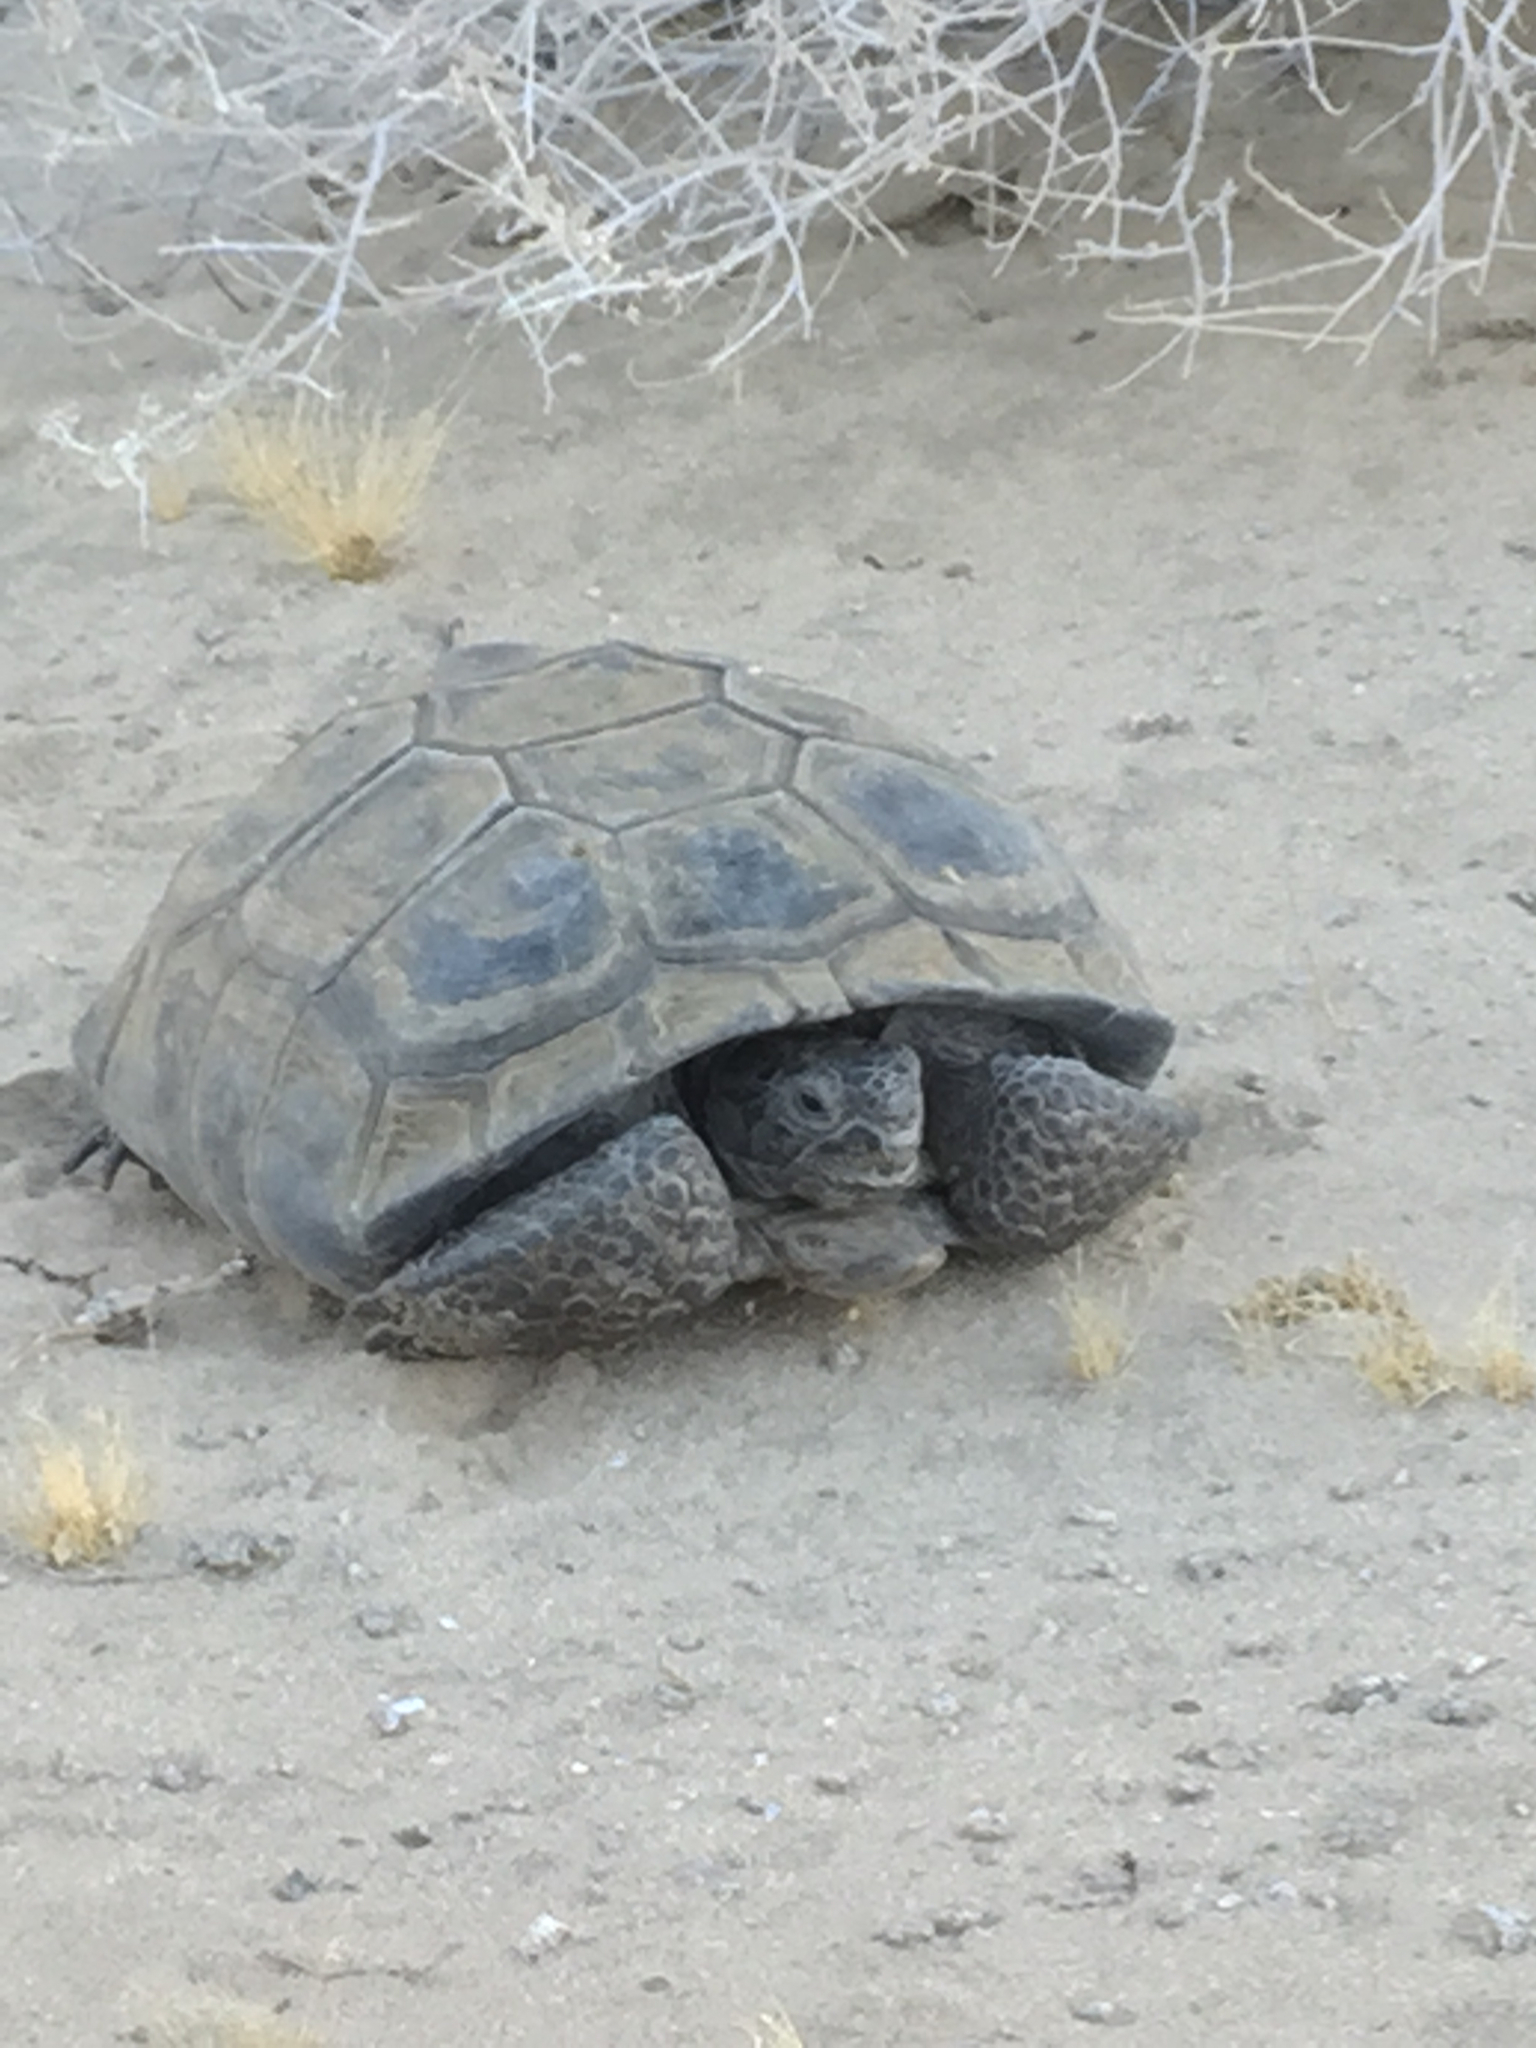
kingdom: Animalia
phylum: Chordata
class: Testudines
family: Testudinidae
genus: Gopherus
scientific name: Gopherus agassizii
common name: Mojave desert tortoise
